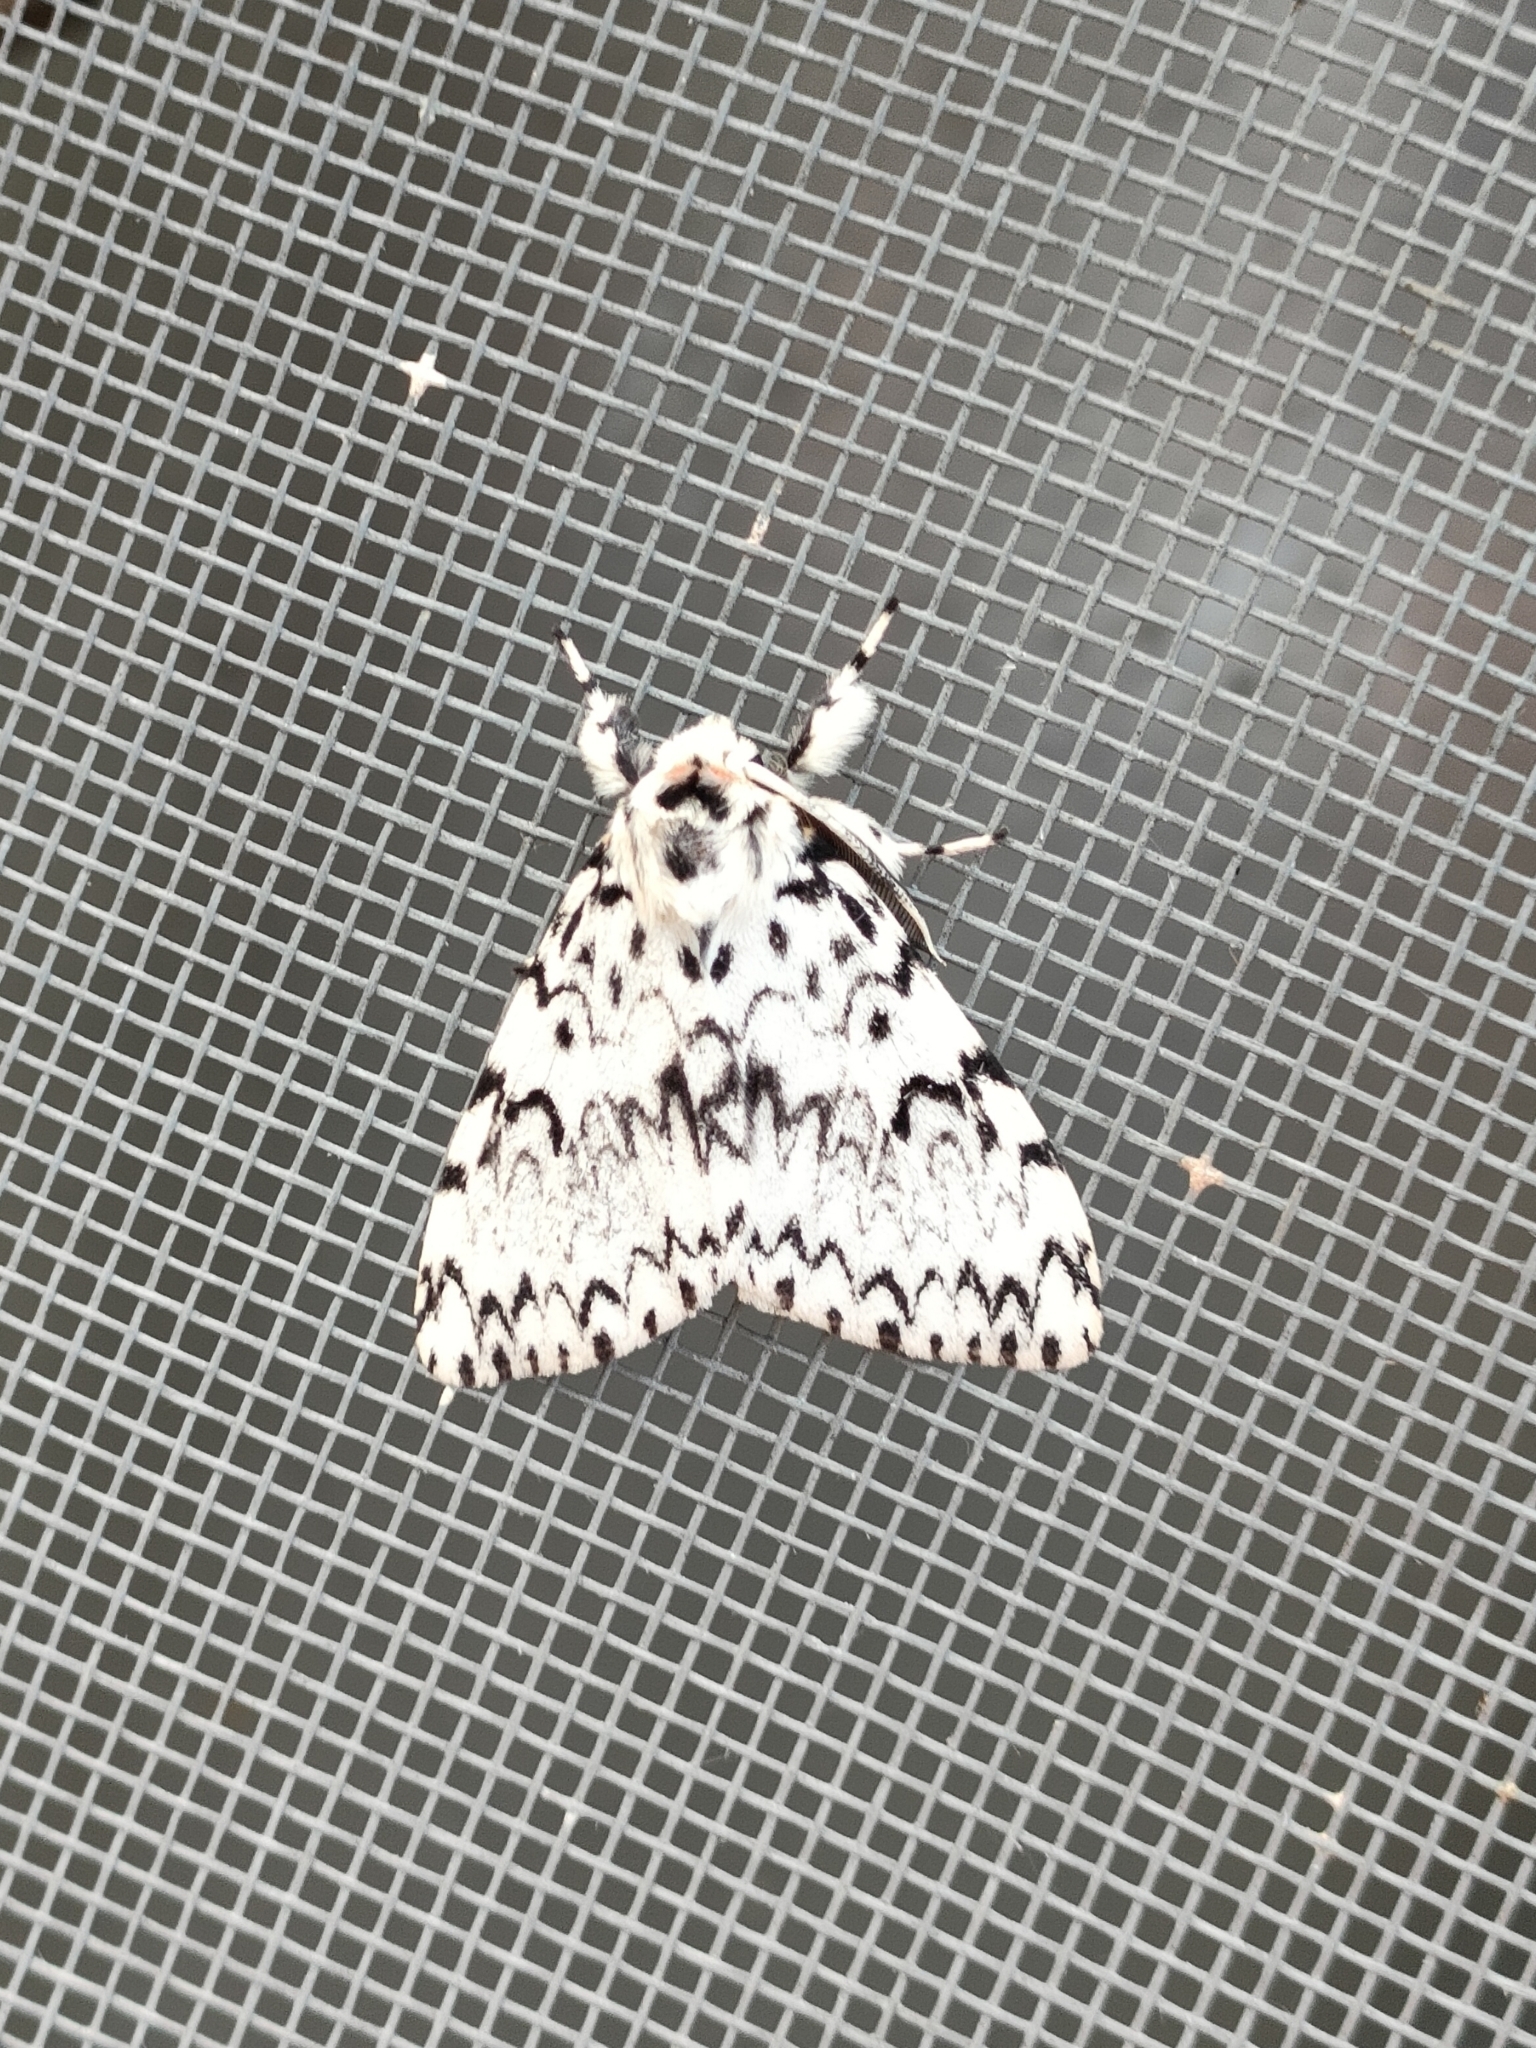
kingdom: Animalia
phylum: Arthropoda
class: Insecta
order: Lepidoptera
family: Erebidae
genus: Lymantria
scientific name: Lymantria monacha
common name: Black arches
